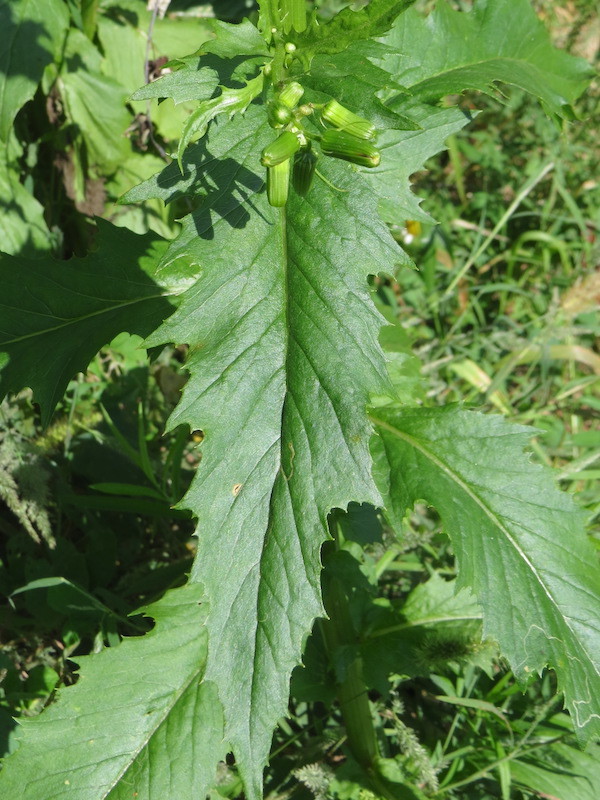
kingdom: Plantae
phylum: Tracheophyta
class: Magnoliopsida
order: Asterales
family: Asteraceae
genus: Erechtites
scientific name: Erechtites hieraciifolius
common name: American burnweed
